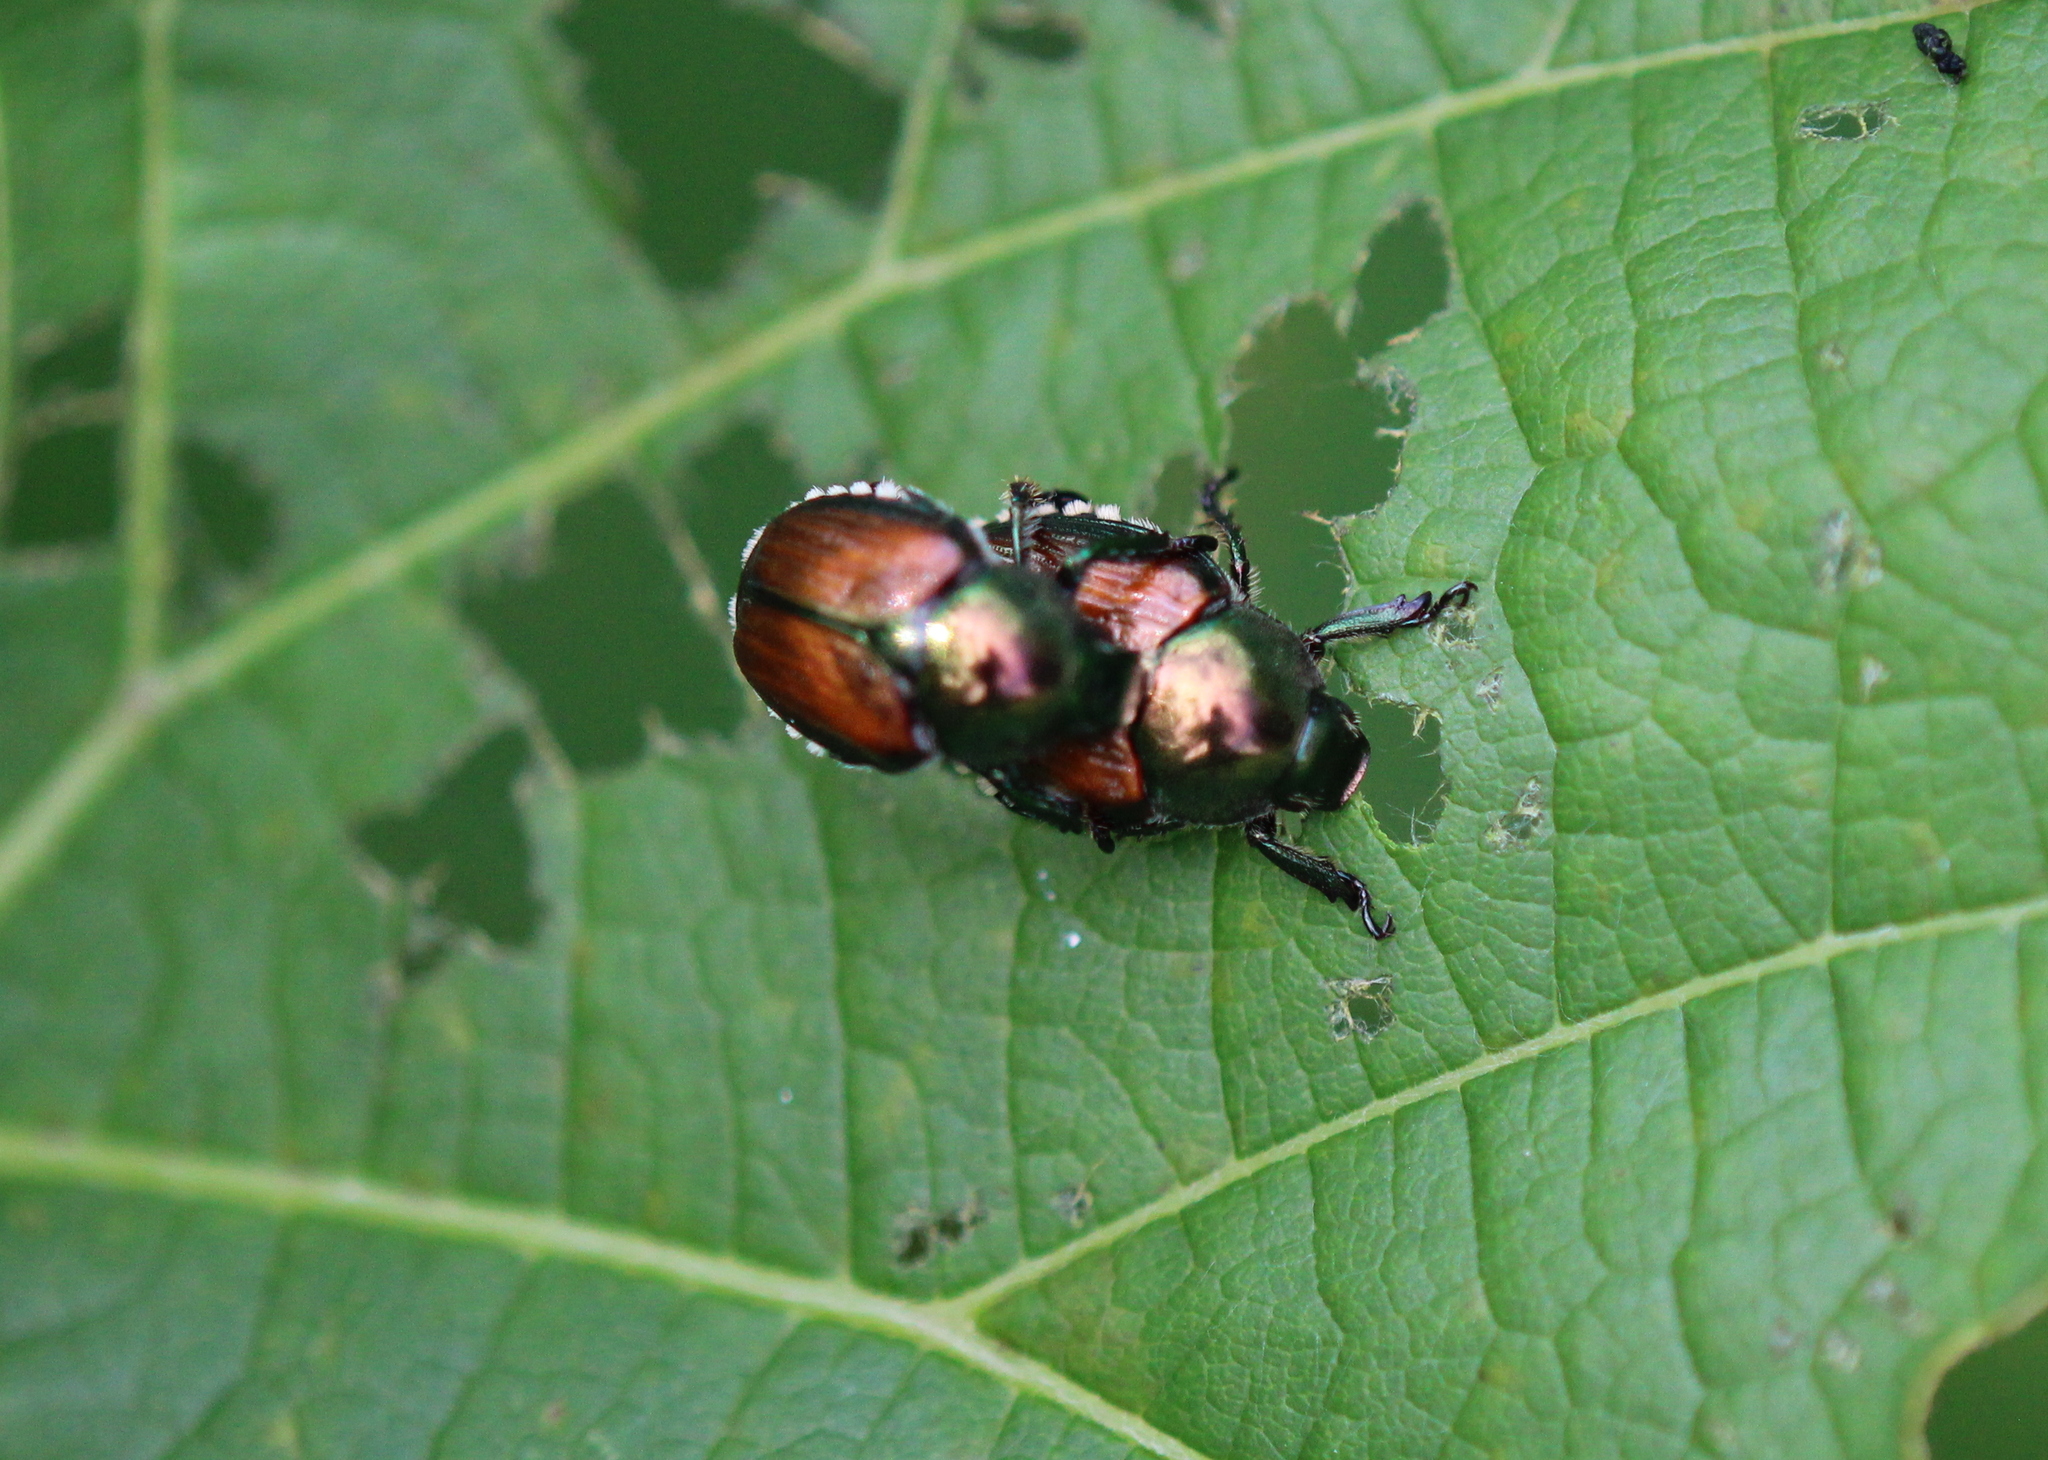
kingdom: Animalia
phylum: Arthropoda
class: Insecta
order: Coleoptera
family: Scarabaeidae
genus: Popillia
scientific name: Popillia japonica
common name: Japanese beetle
